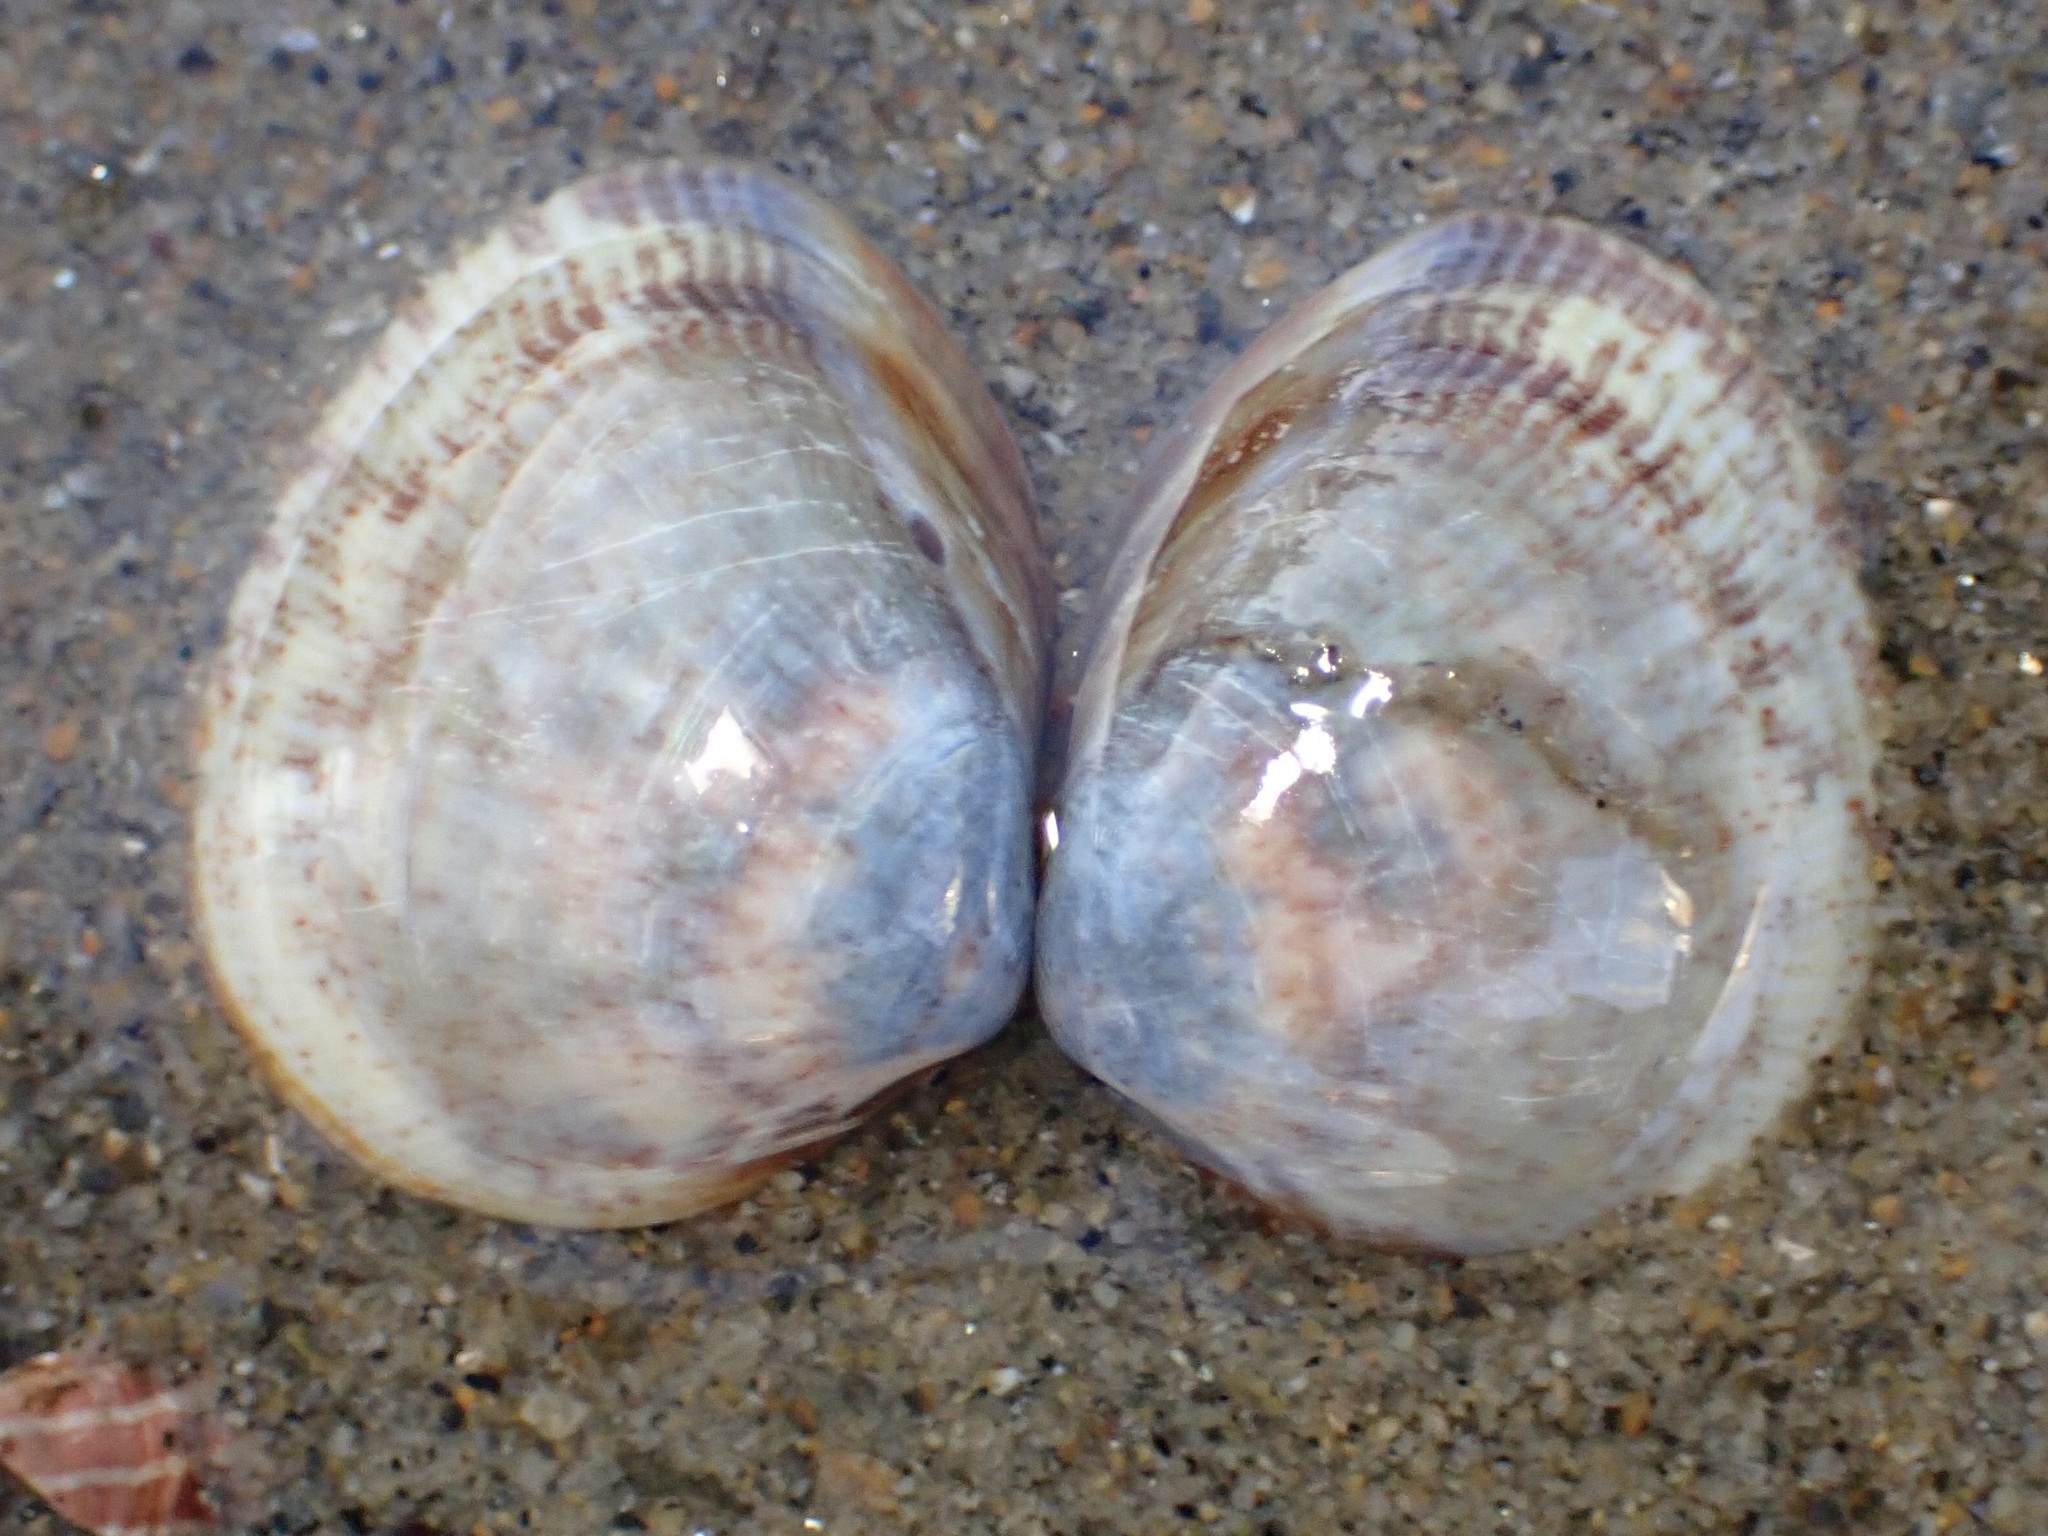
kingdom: Animalia
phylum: Mollusca
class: Bivalvia
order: Cardiida
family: Cardiidae
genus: Laevicardium
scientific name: Laevicardium substriatum
